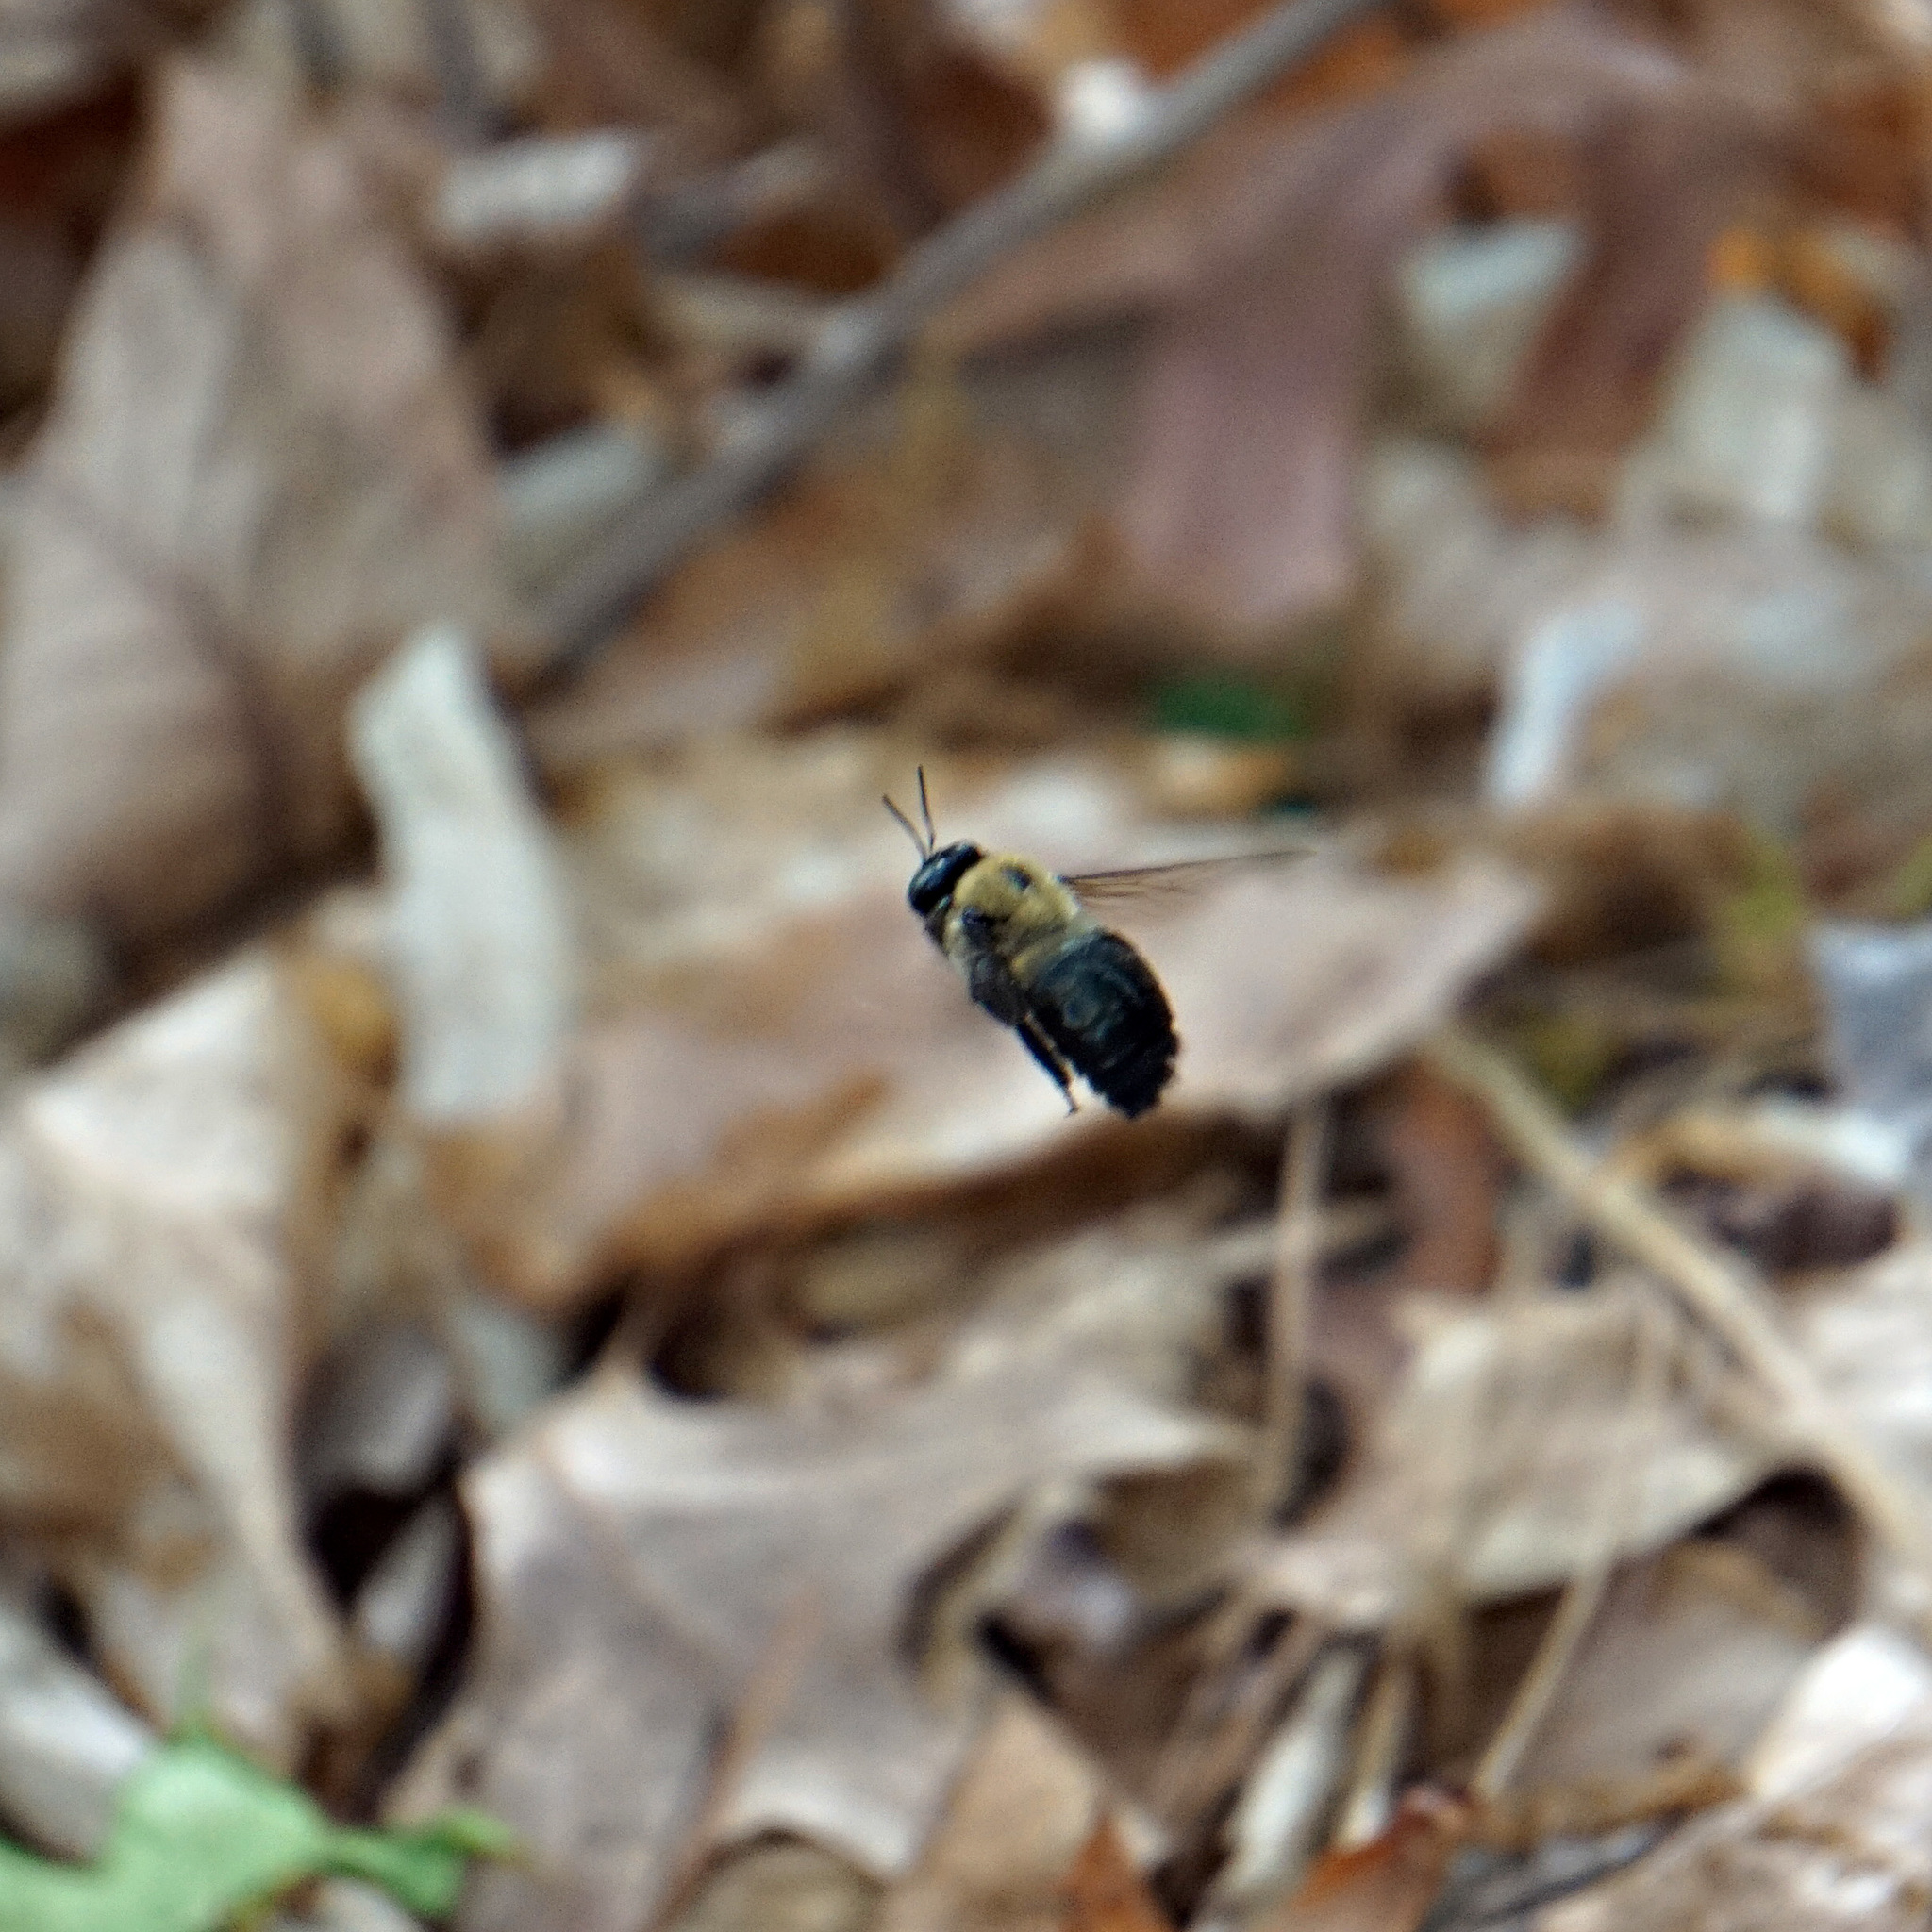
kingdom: Animalia
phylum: Arthropoda
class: Insecta
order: Hymenoptera
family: Apidae
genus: Xylocopa
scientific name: Xylocopa virginica
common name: Carpenter bee
